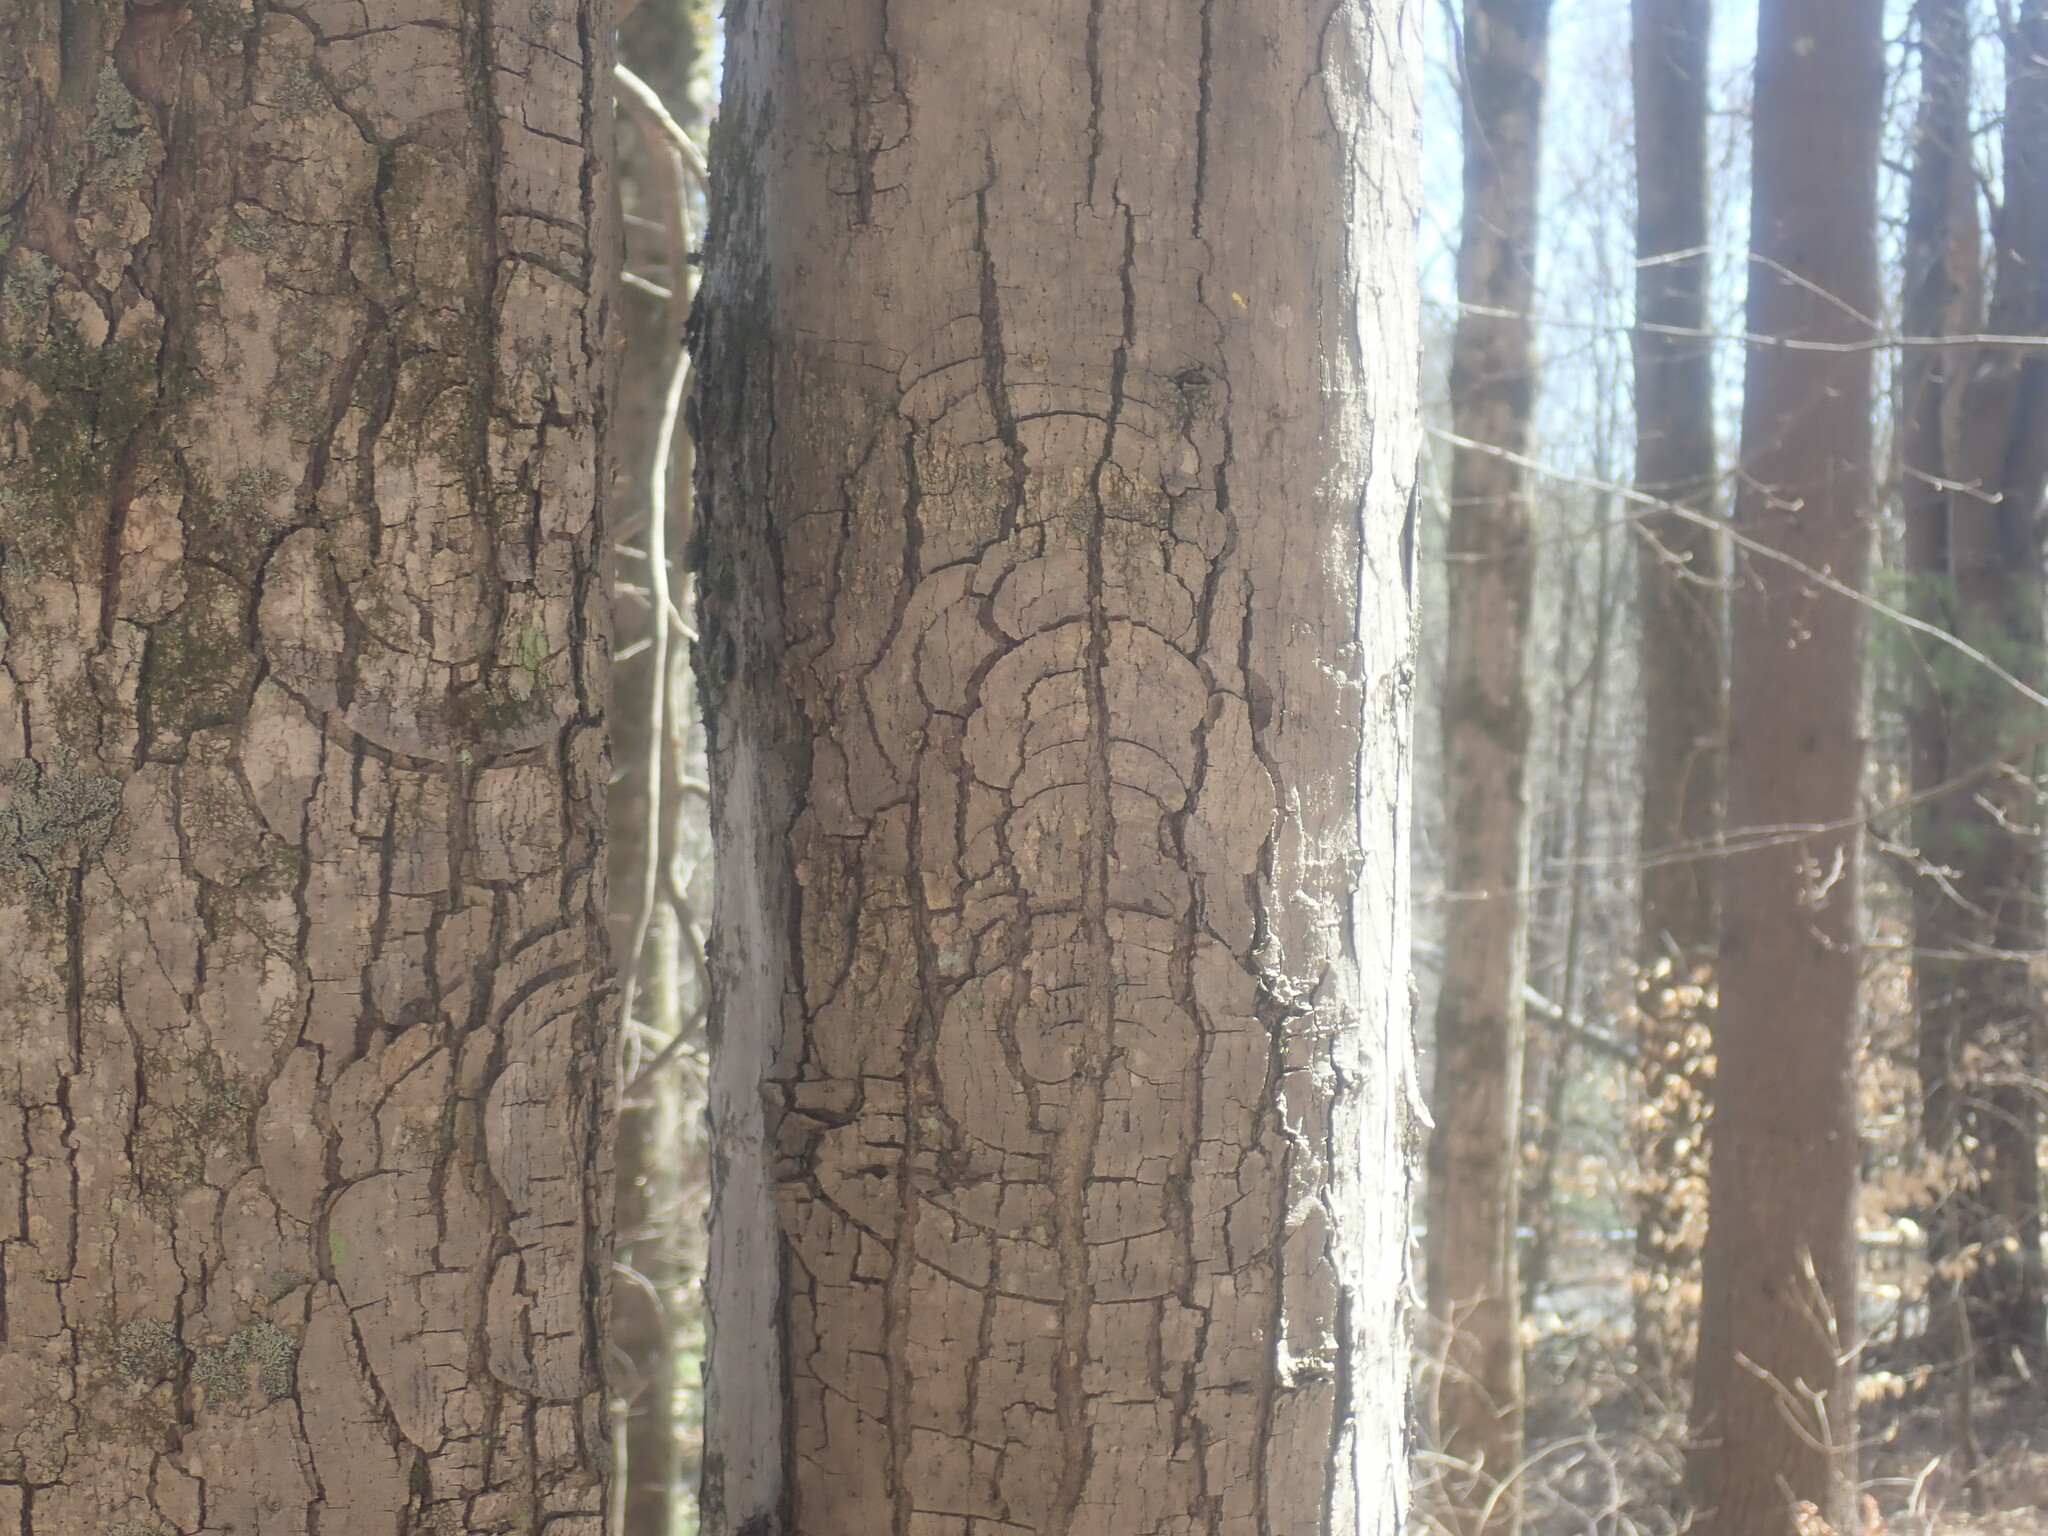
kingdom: Plantae
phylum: Tracheophyta
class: Magnoliopsida
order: Sapindales
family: Sapindaceae
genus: Acer
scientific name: Acer rubrum
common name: Red maple
